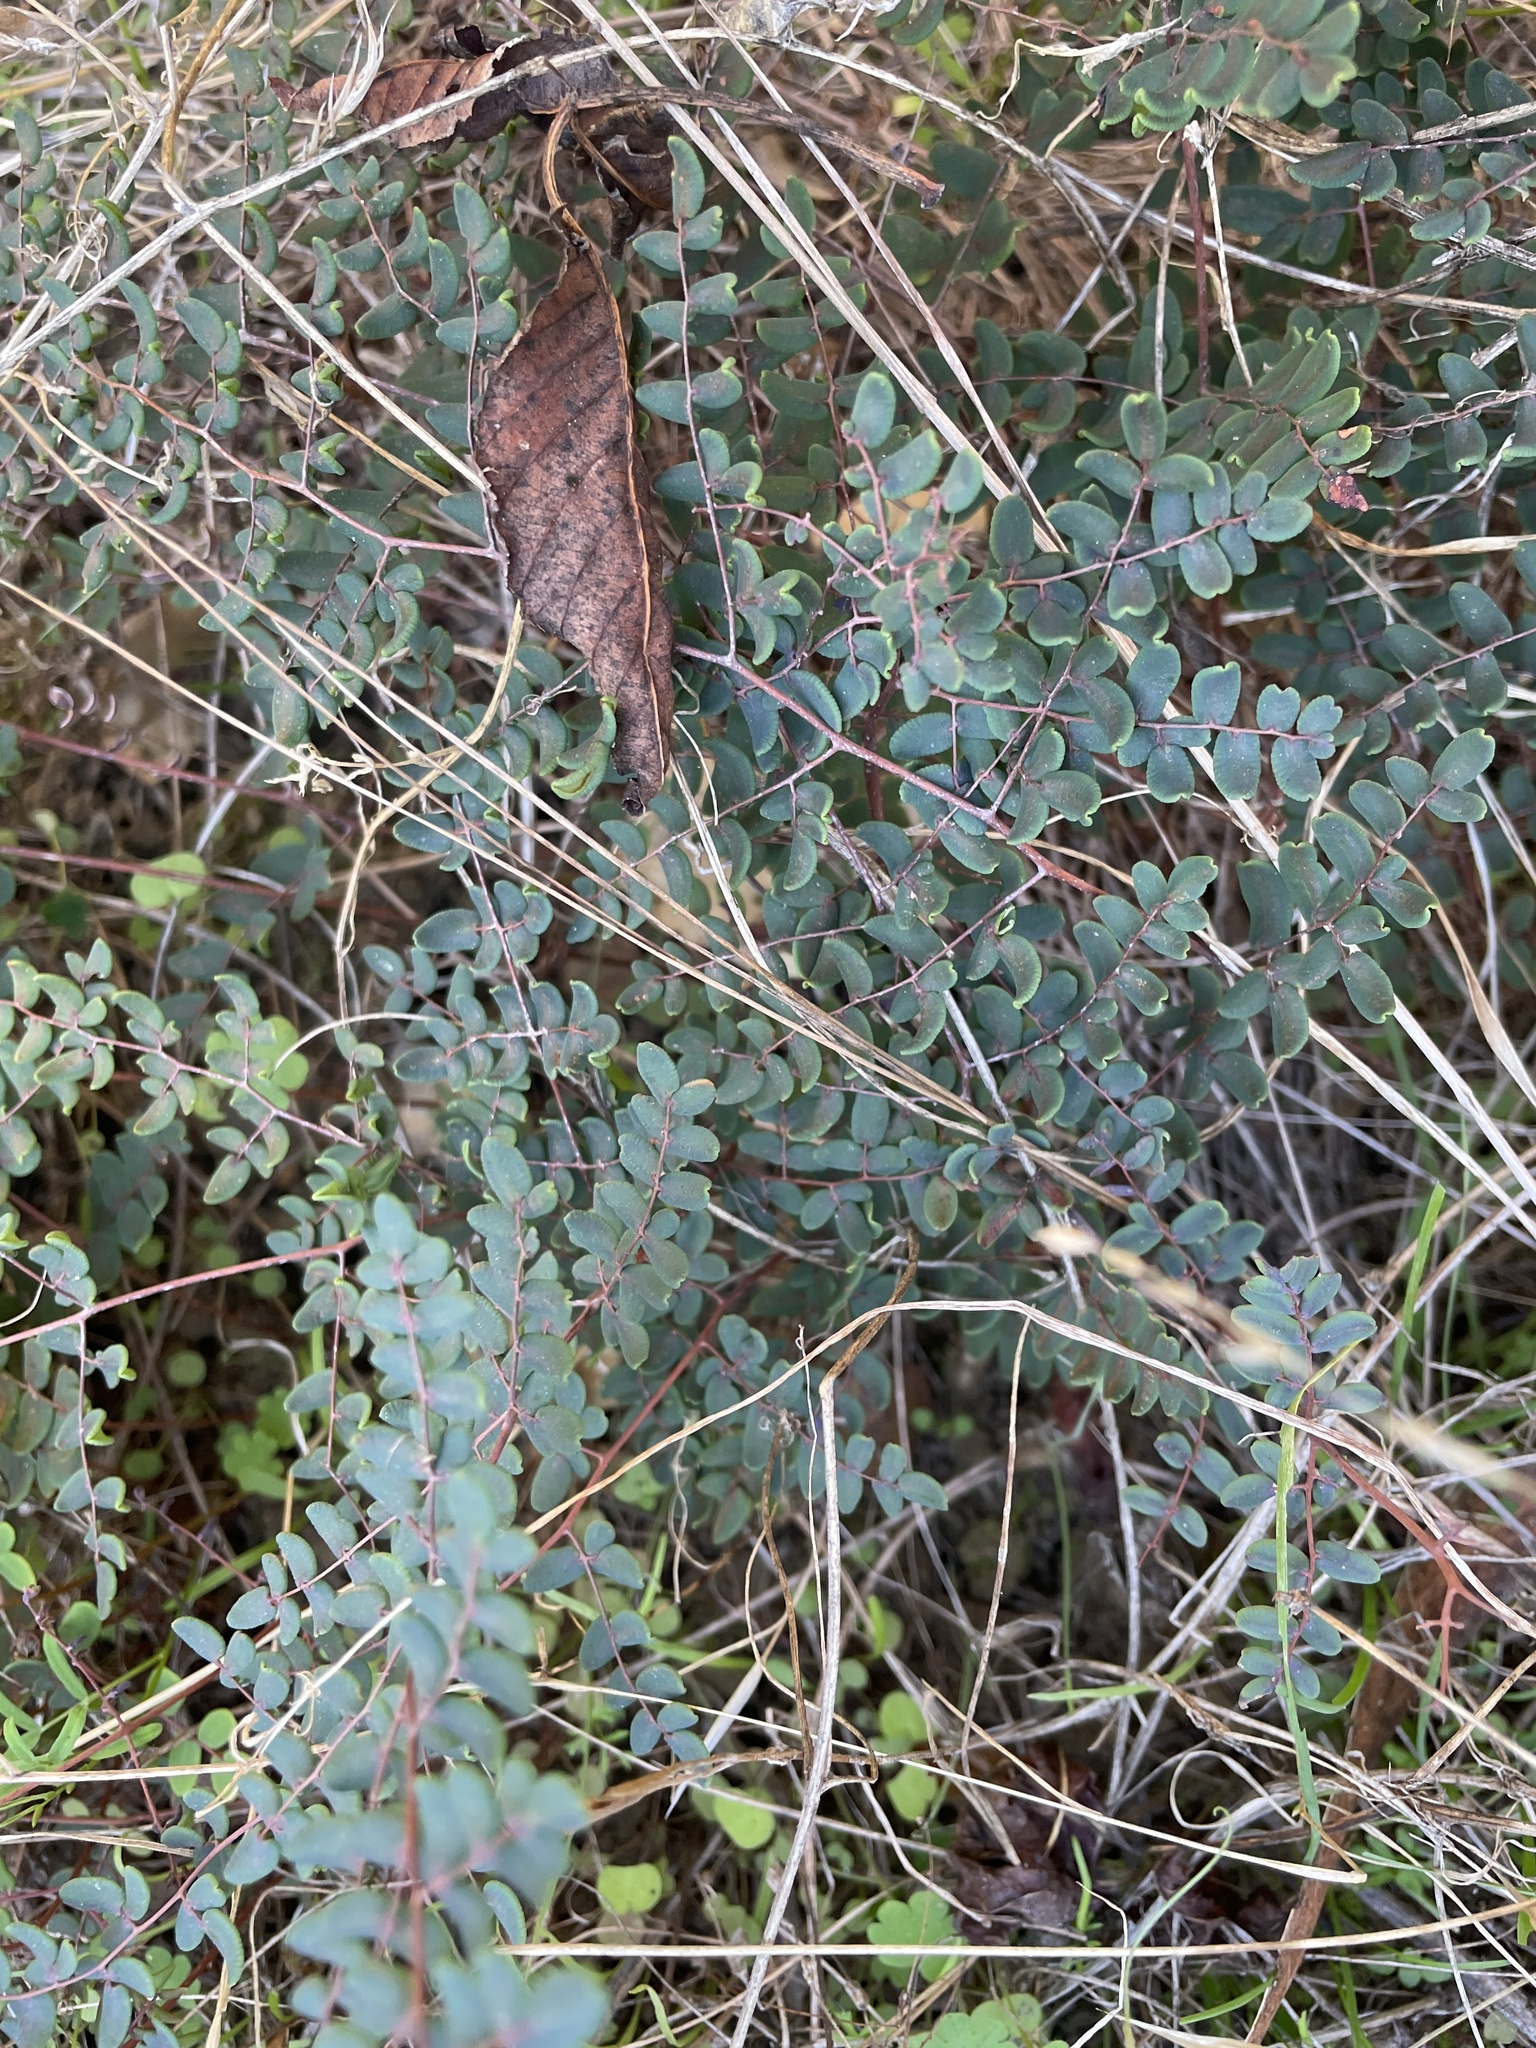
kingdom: Plantae
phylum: Tracheophyta
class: Polypodiopsida
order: Polypodiales
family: Pteridaceae
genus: Pellaea
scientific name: Pellaea andromedifolia
